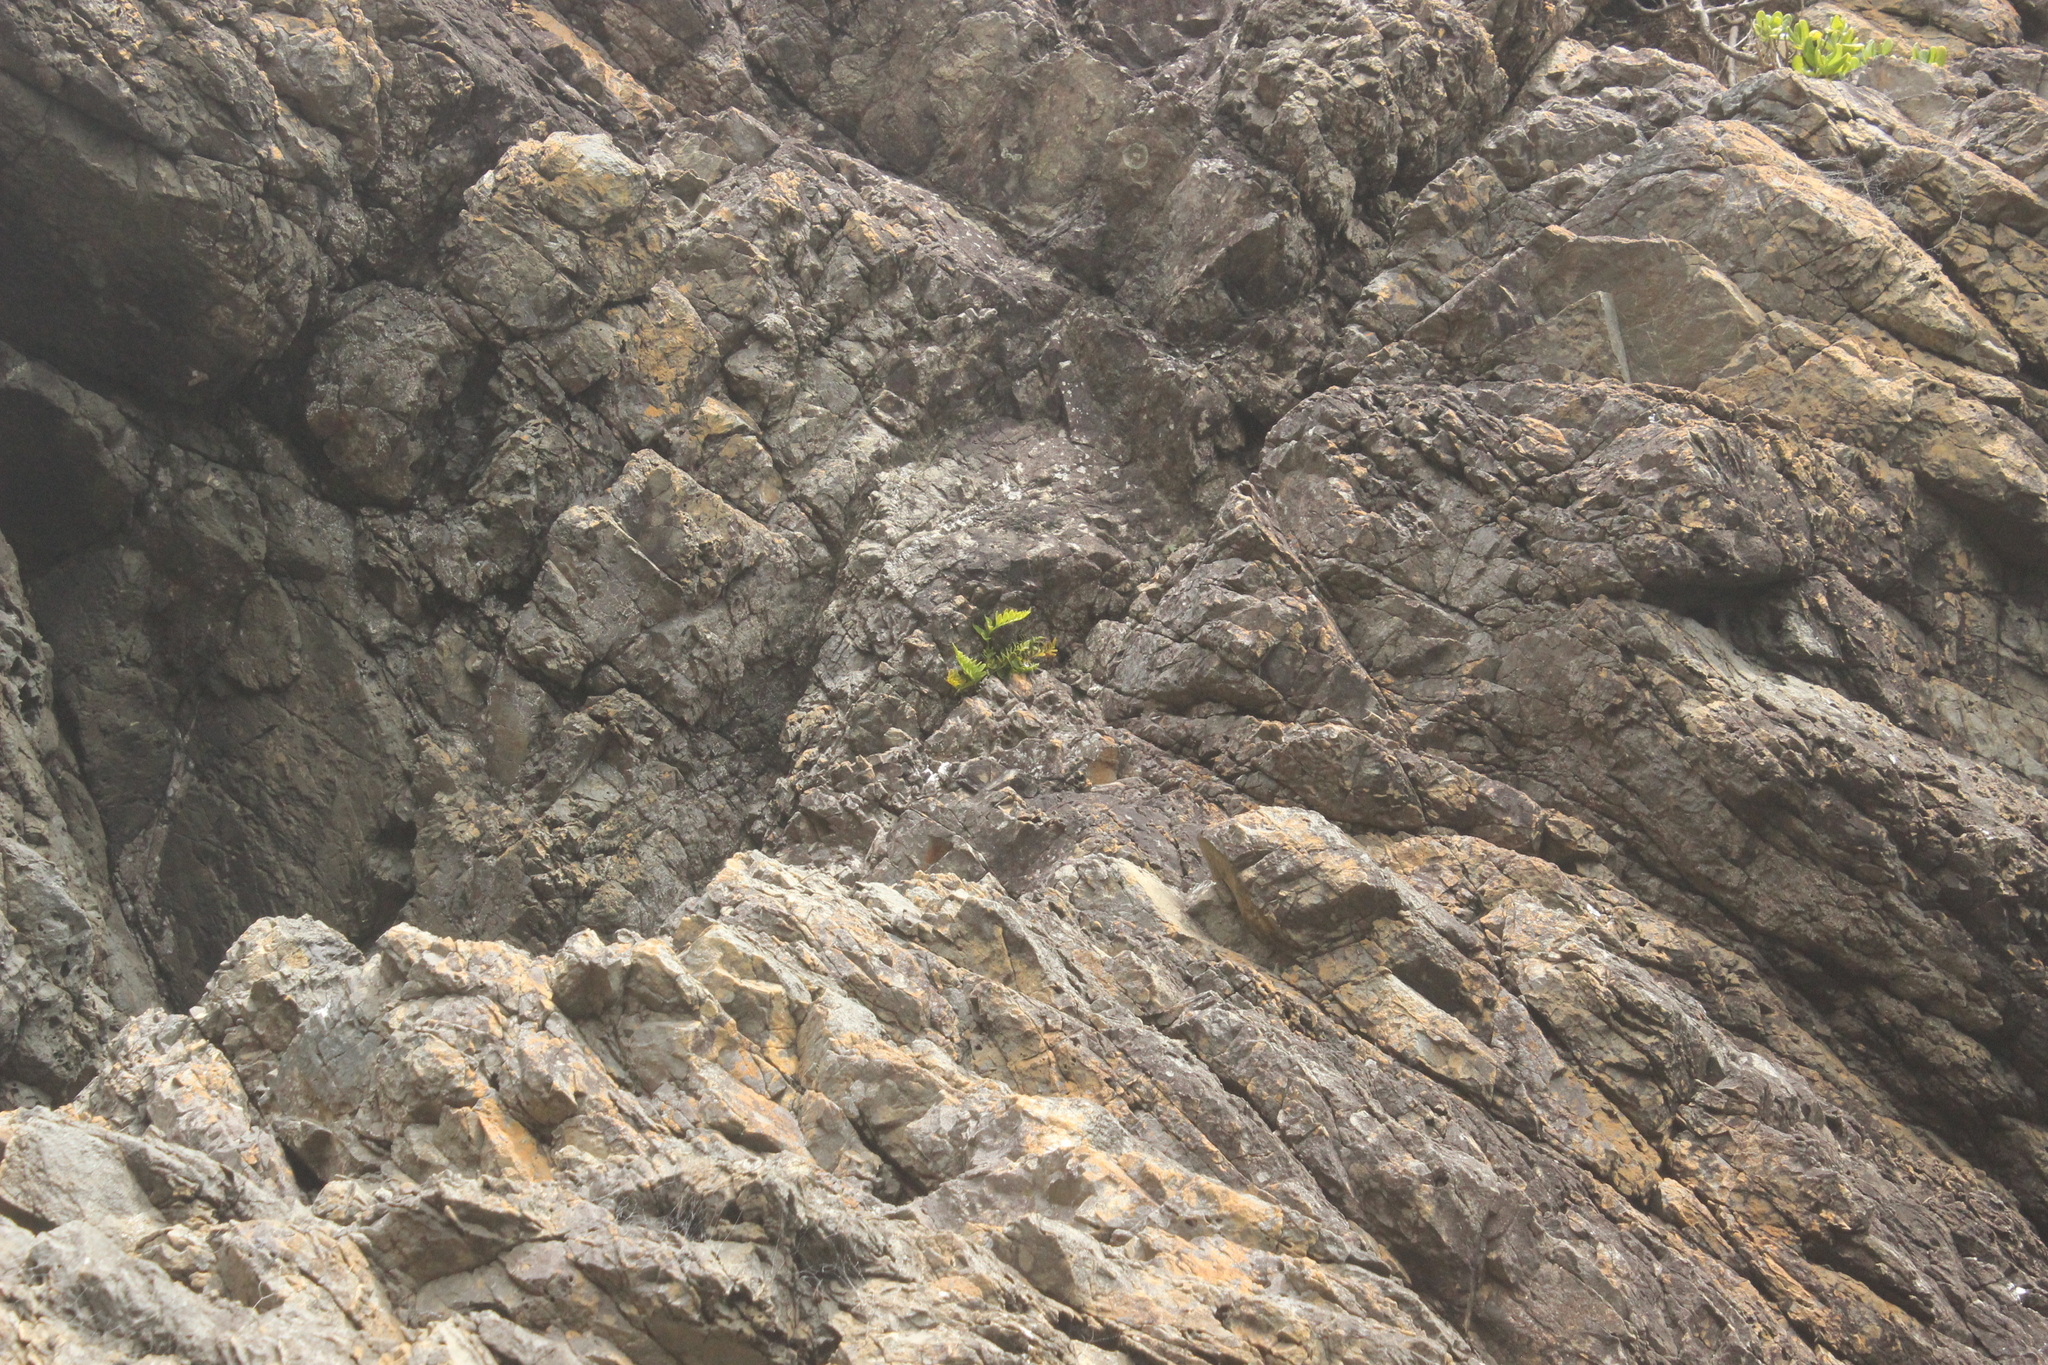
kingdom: Plantae
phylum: Tracheophyta
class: Polypodiopsida
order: Polypodiales
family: Aspleniaceae
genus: Asplenium
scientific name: Asplenium obtusatum
